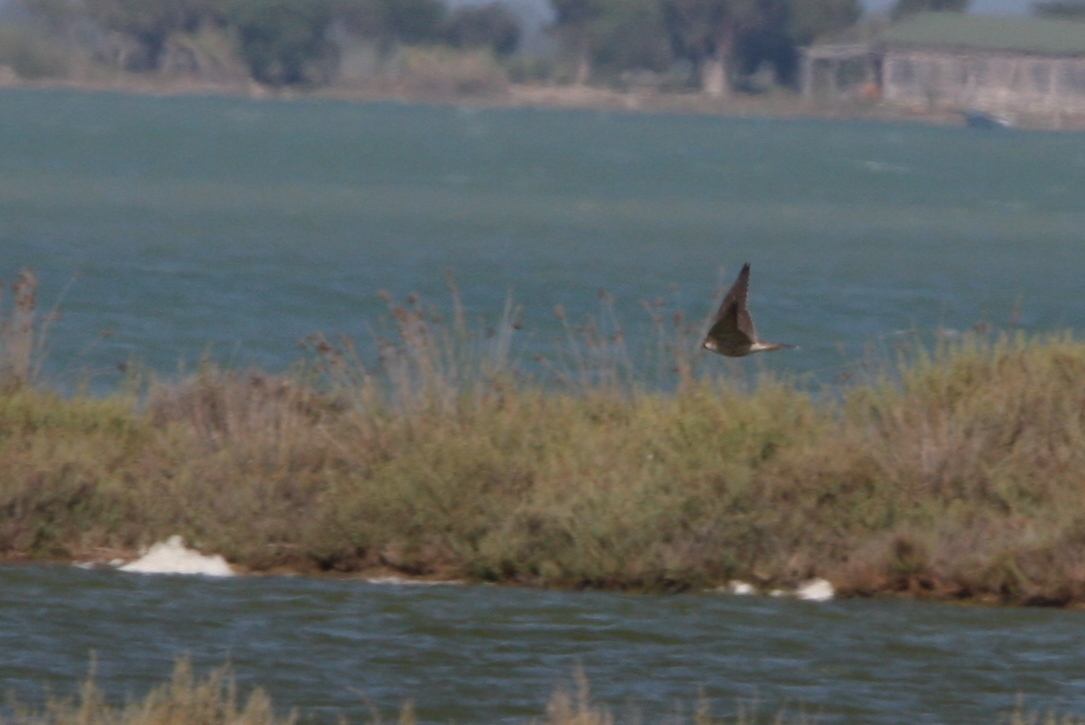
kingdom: Animalia
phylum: Chordata
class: Aves
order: Falconiformes
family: Falconidae
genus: Falco
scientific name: Falco peregrinus
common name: Peregrine falcon
